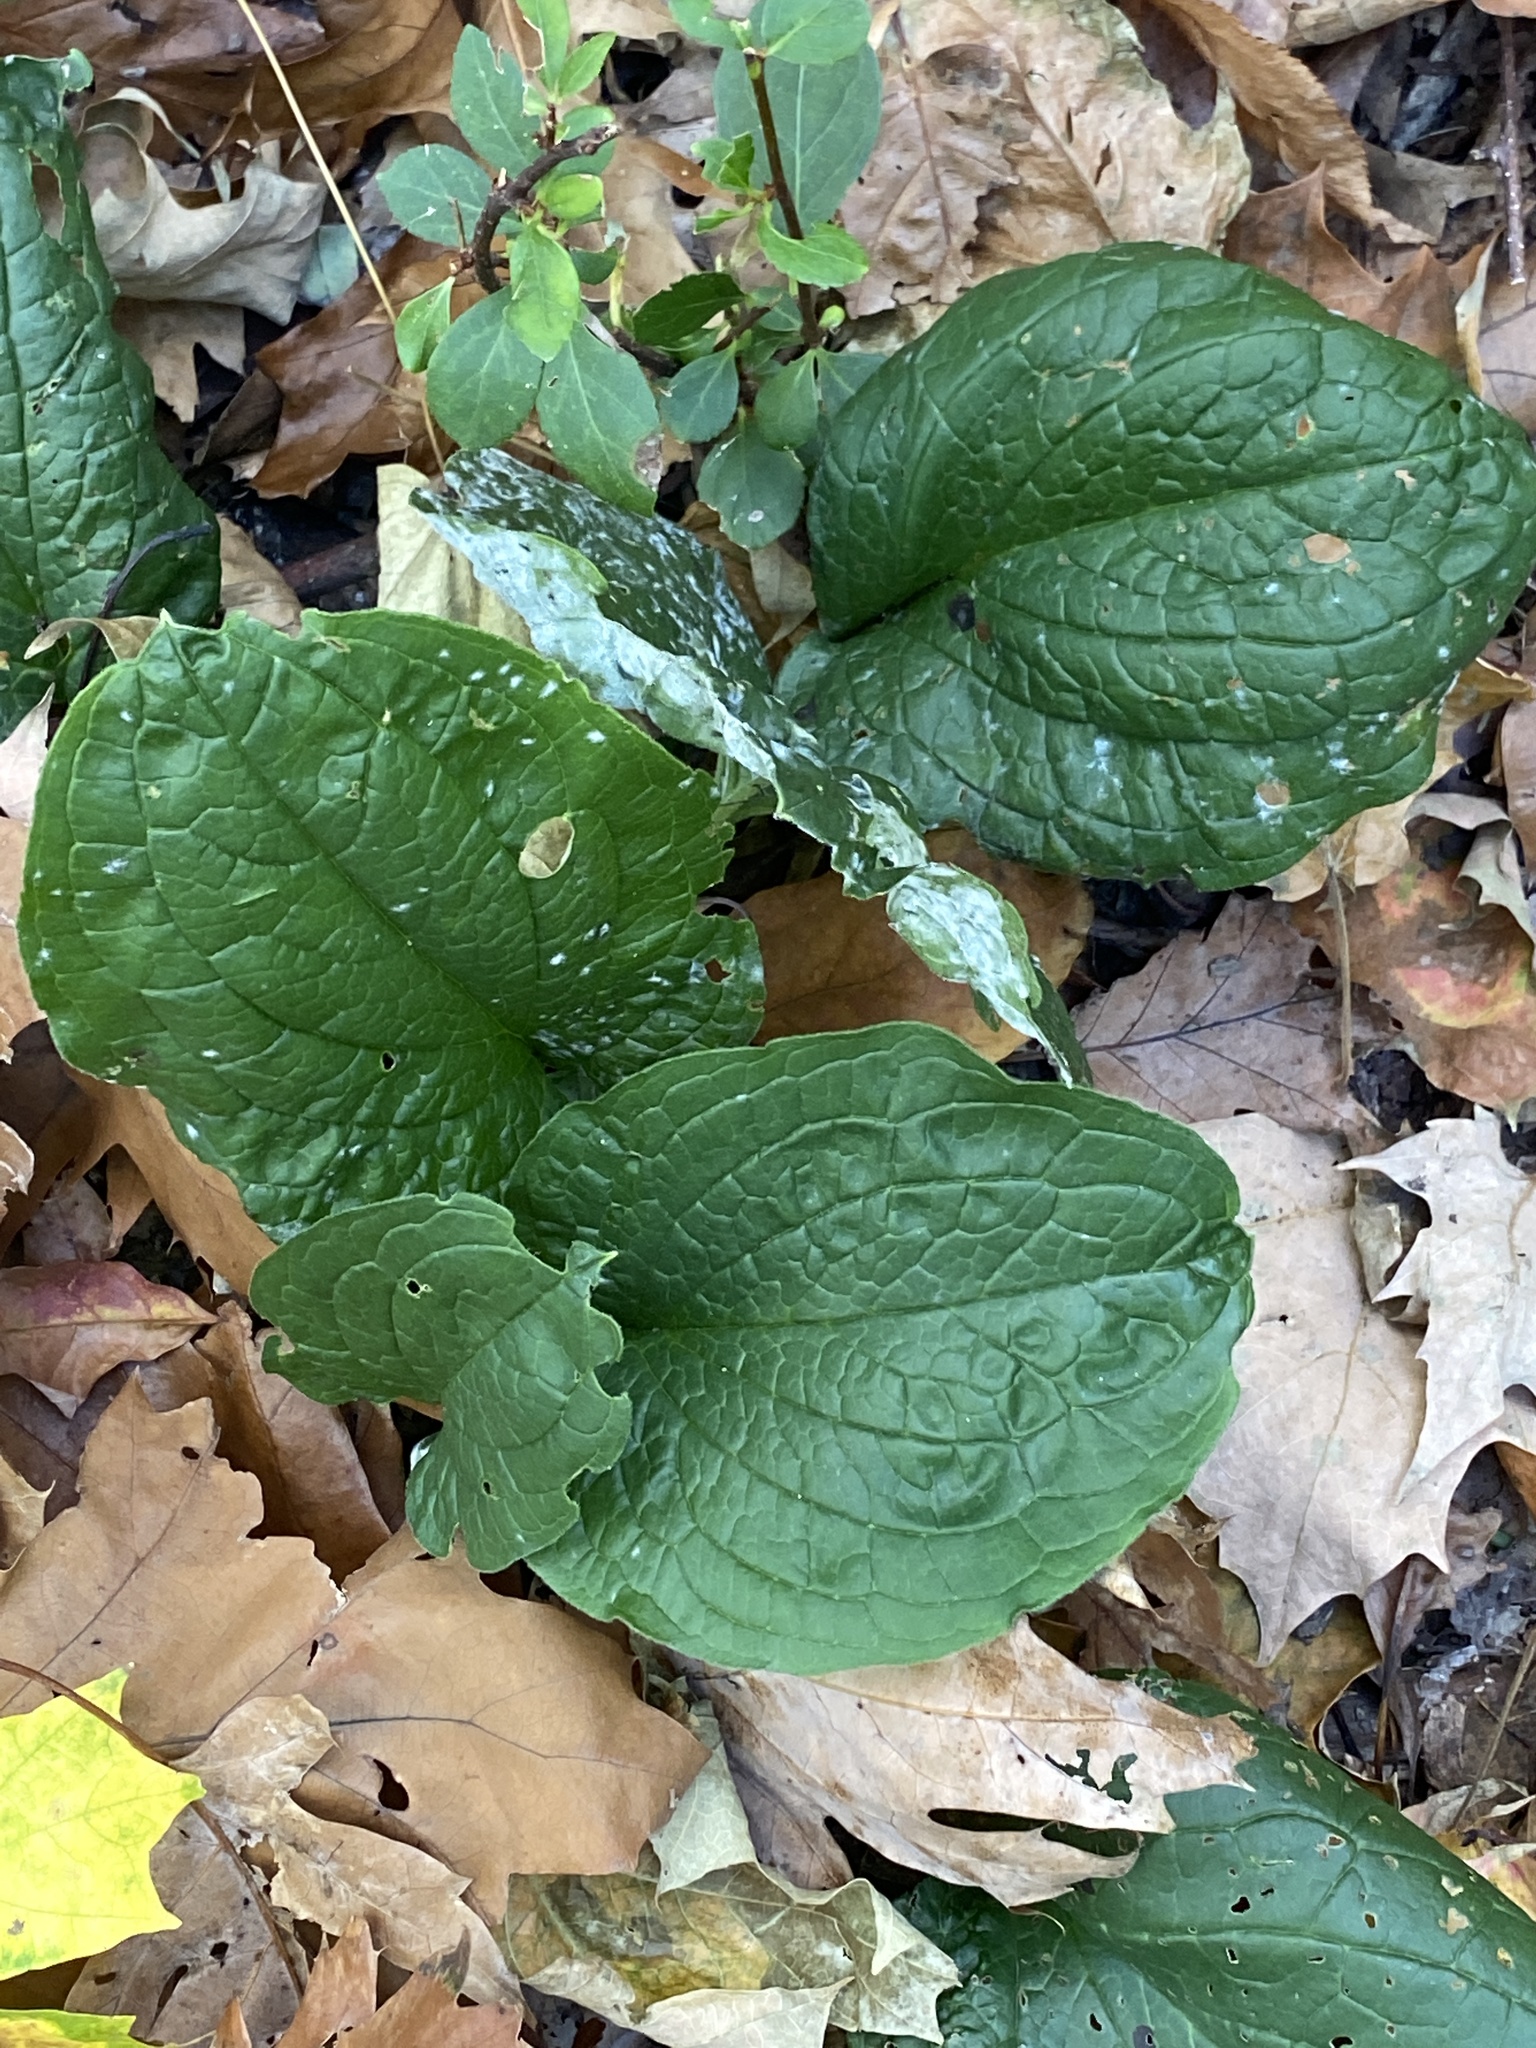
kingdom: Plantae
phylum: Tracheophyta
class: Magnoliopsida
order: Boraginales
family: Boraginaceae
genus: Hackelia
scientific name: Hackelia virginiana
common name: Beggar's-lice
